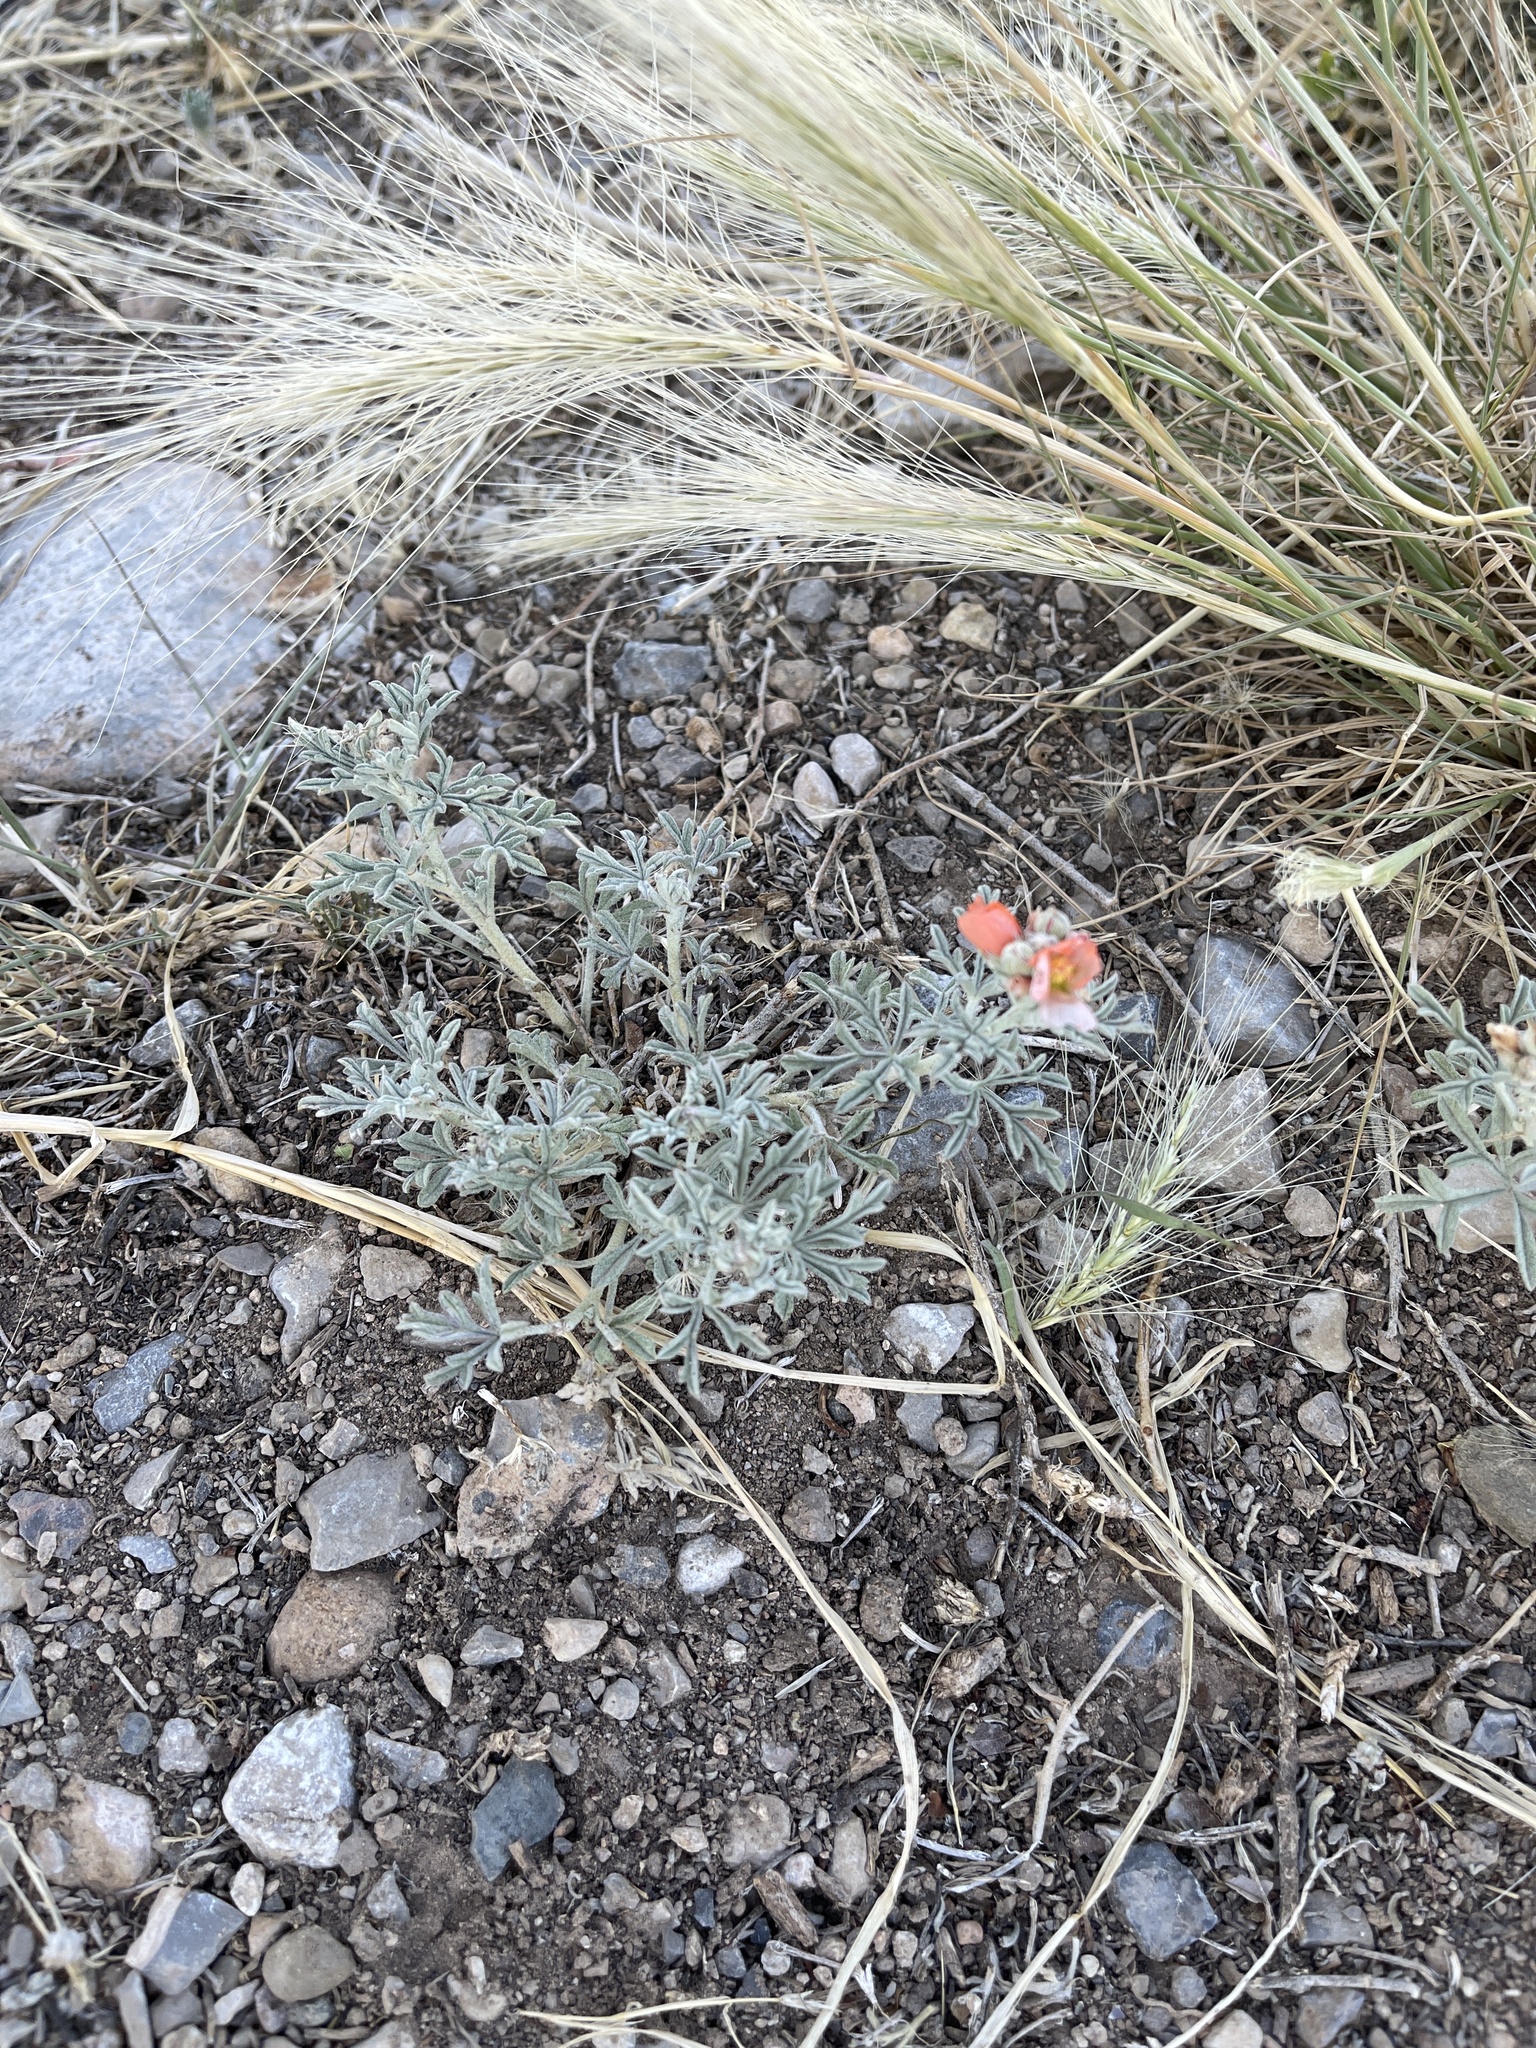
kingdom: Plantae
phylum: Tracheophyta
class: Magnoliopsida
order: Malvales
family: Malvaceae
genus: Sphaeralcea
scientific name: Sphaeralcea coccinea
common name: Moss-rose
